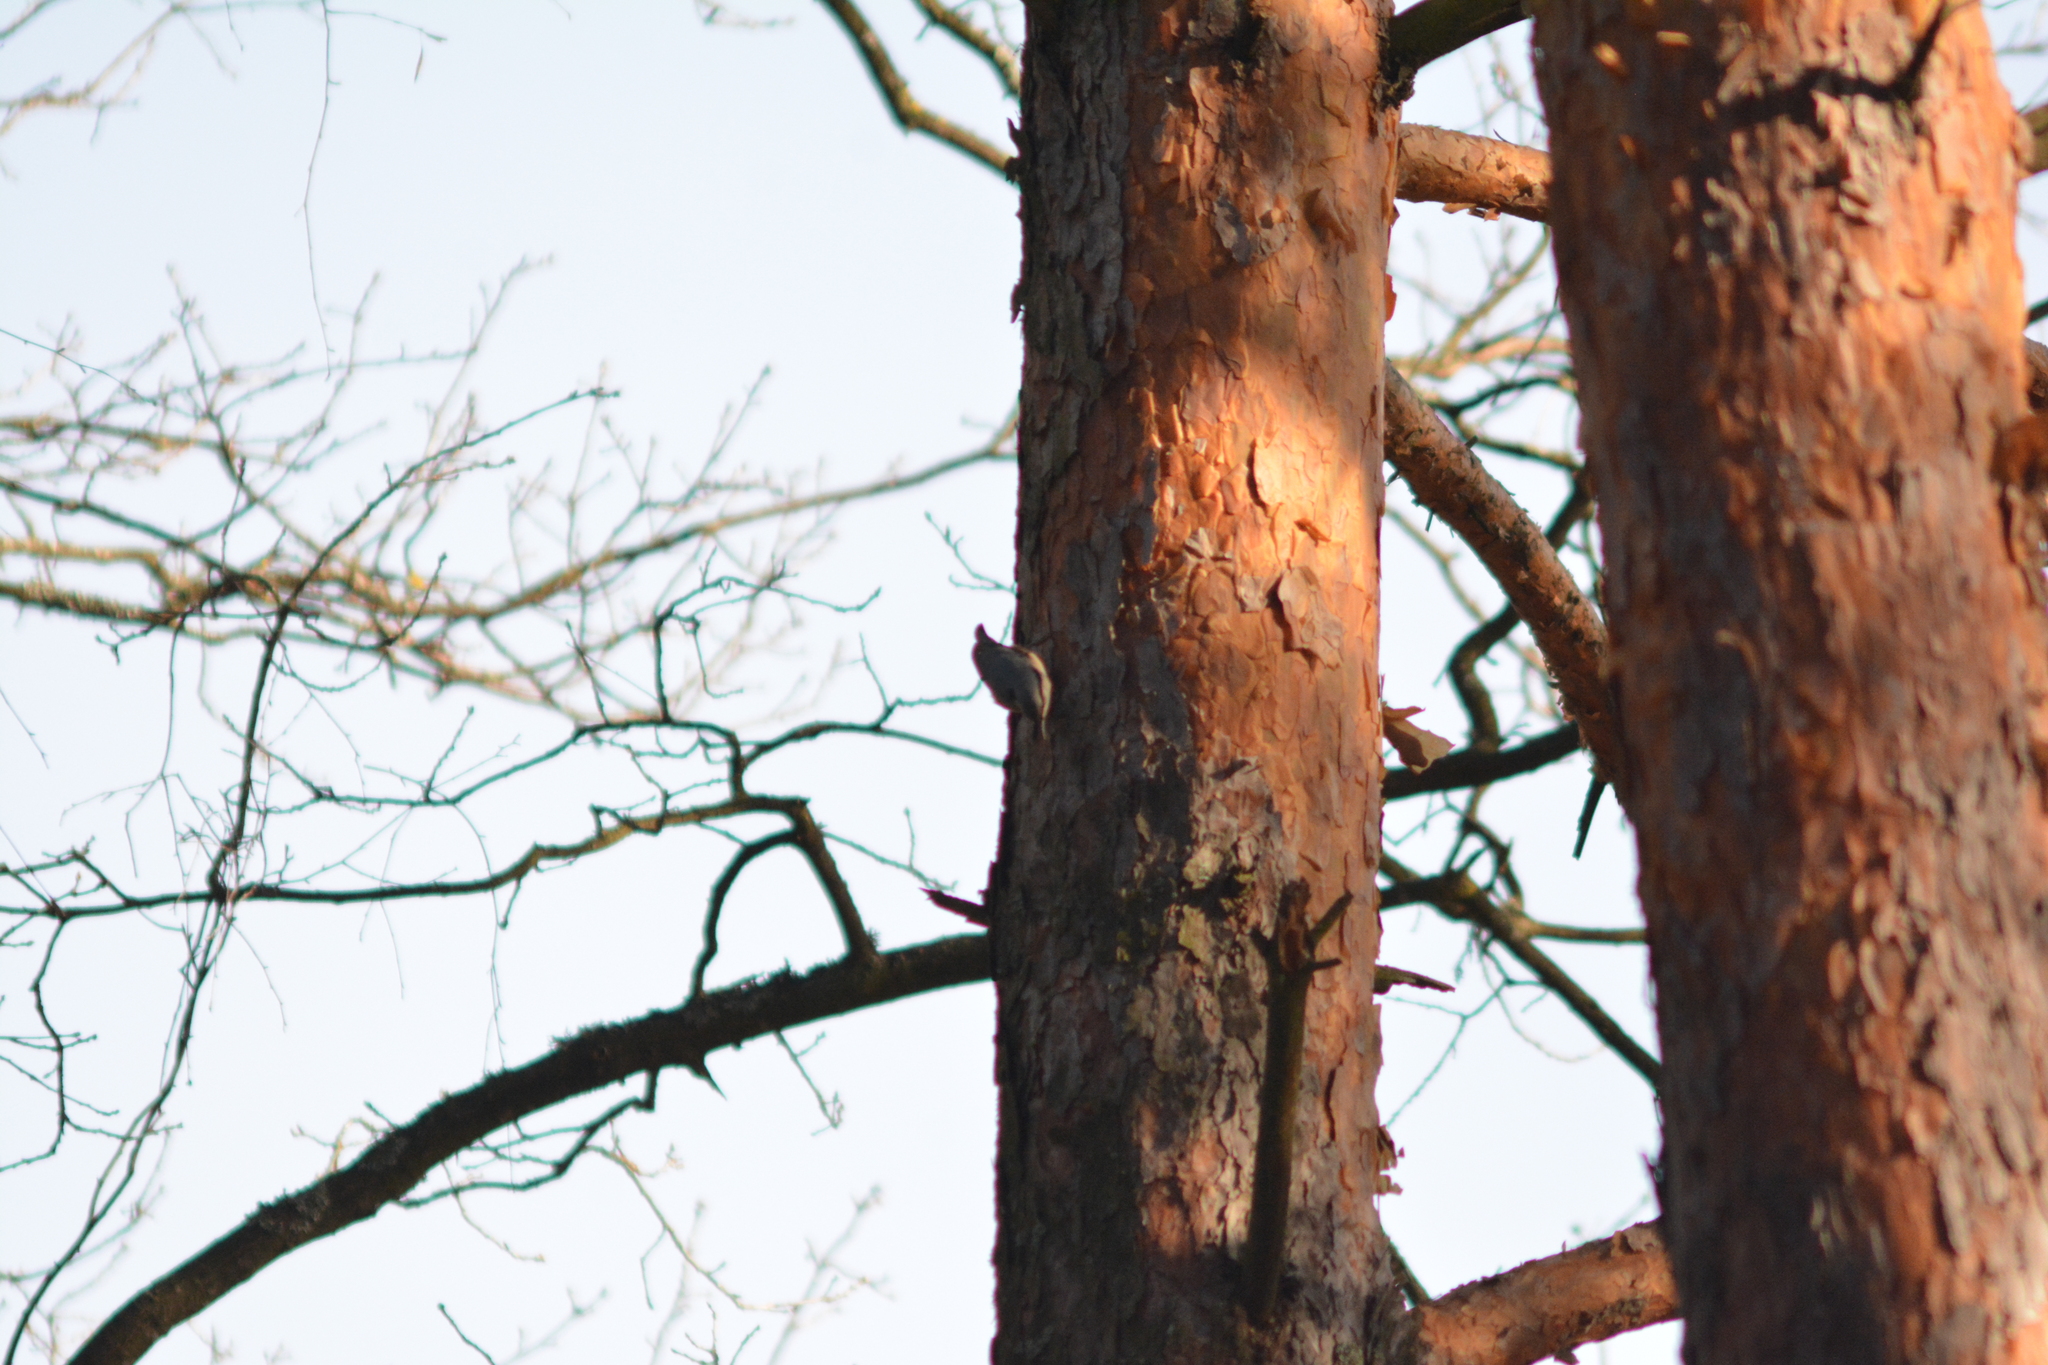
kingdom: Animalia
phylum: Chordata
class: Aves
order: Passeriformes
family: Sittidae
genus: Sitta
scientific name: Sitta europaea
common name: Eurasian nuthatch
